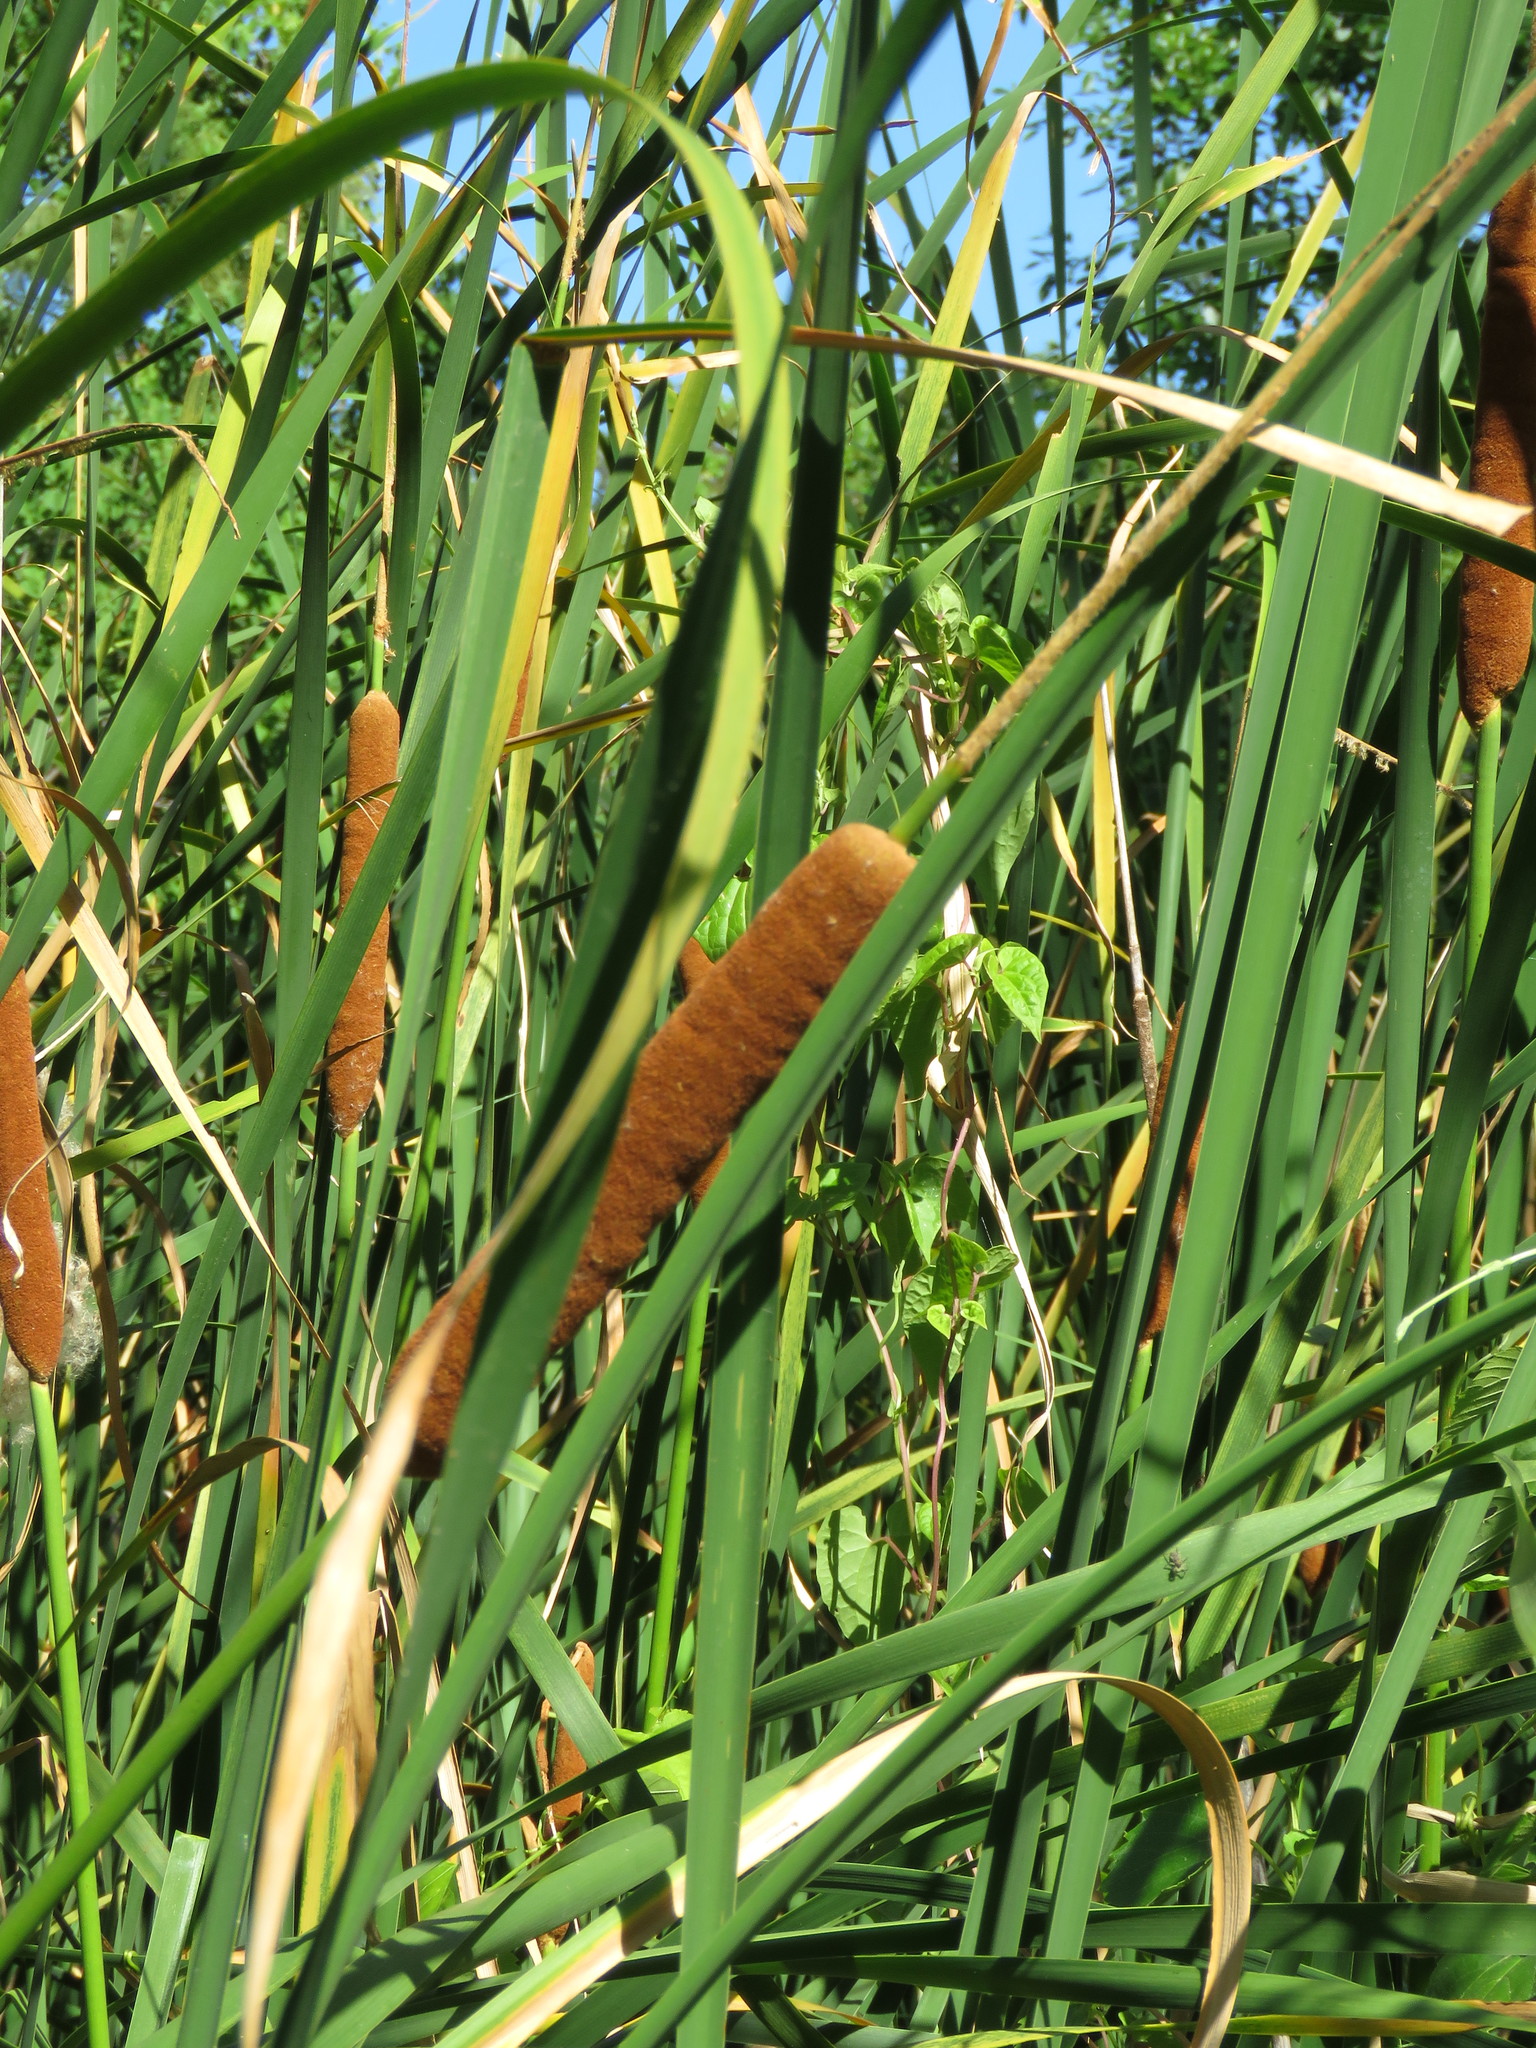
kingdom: Plantae
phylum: Tracheophyta
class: Liliopsida
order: Poales
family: Typhaceae
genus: Typha
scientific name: Typha domingensis
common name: Southern cattail
